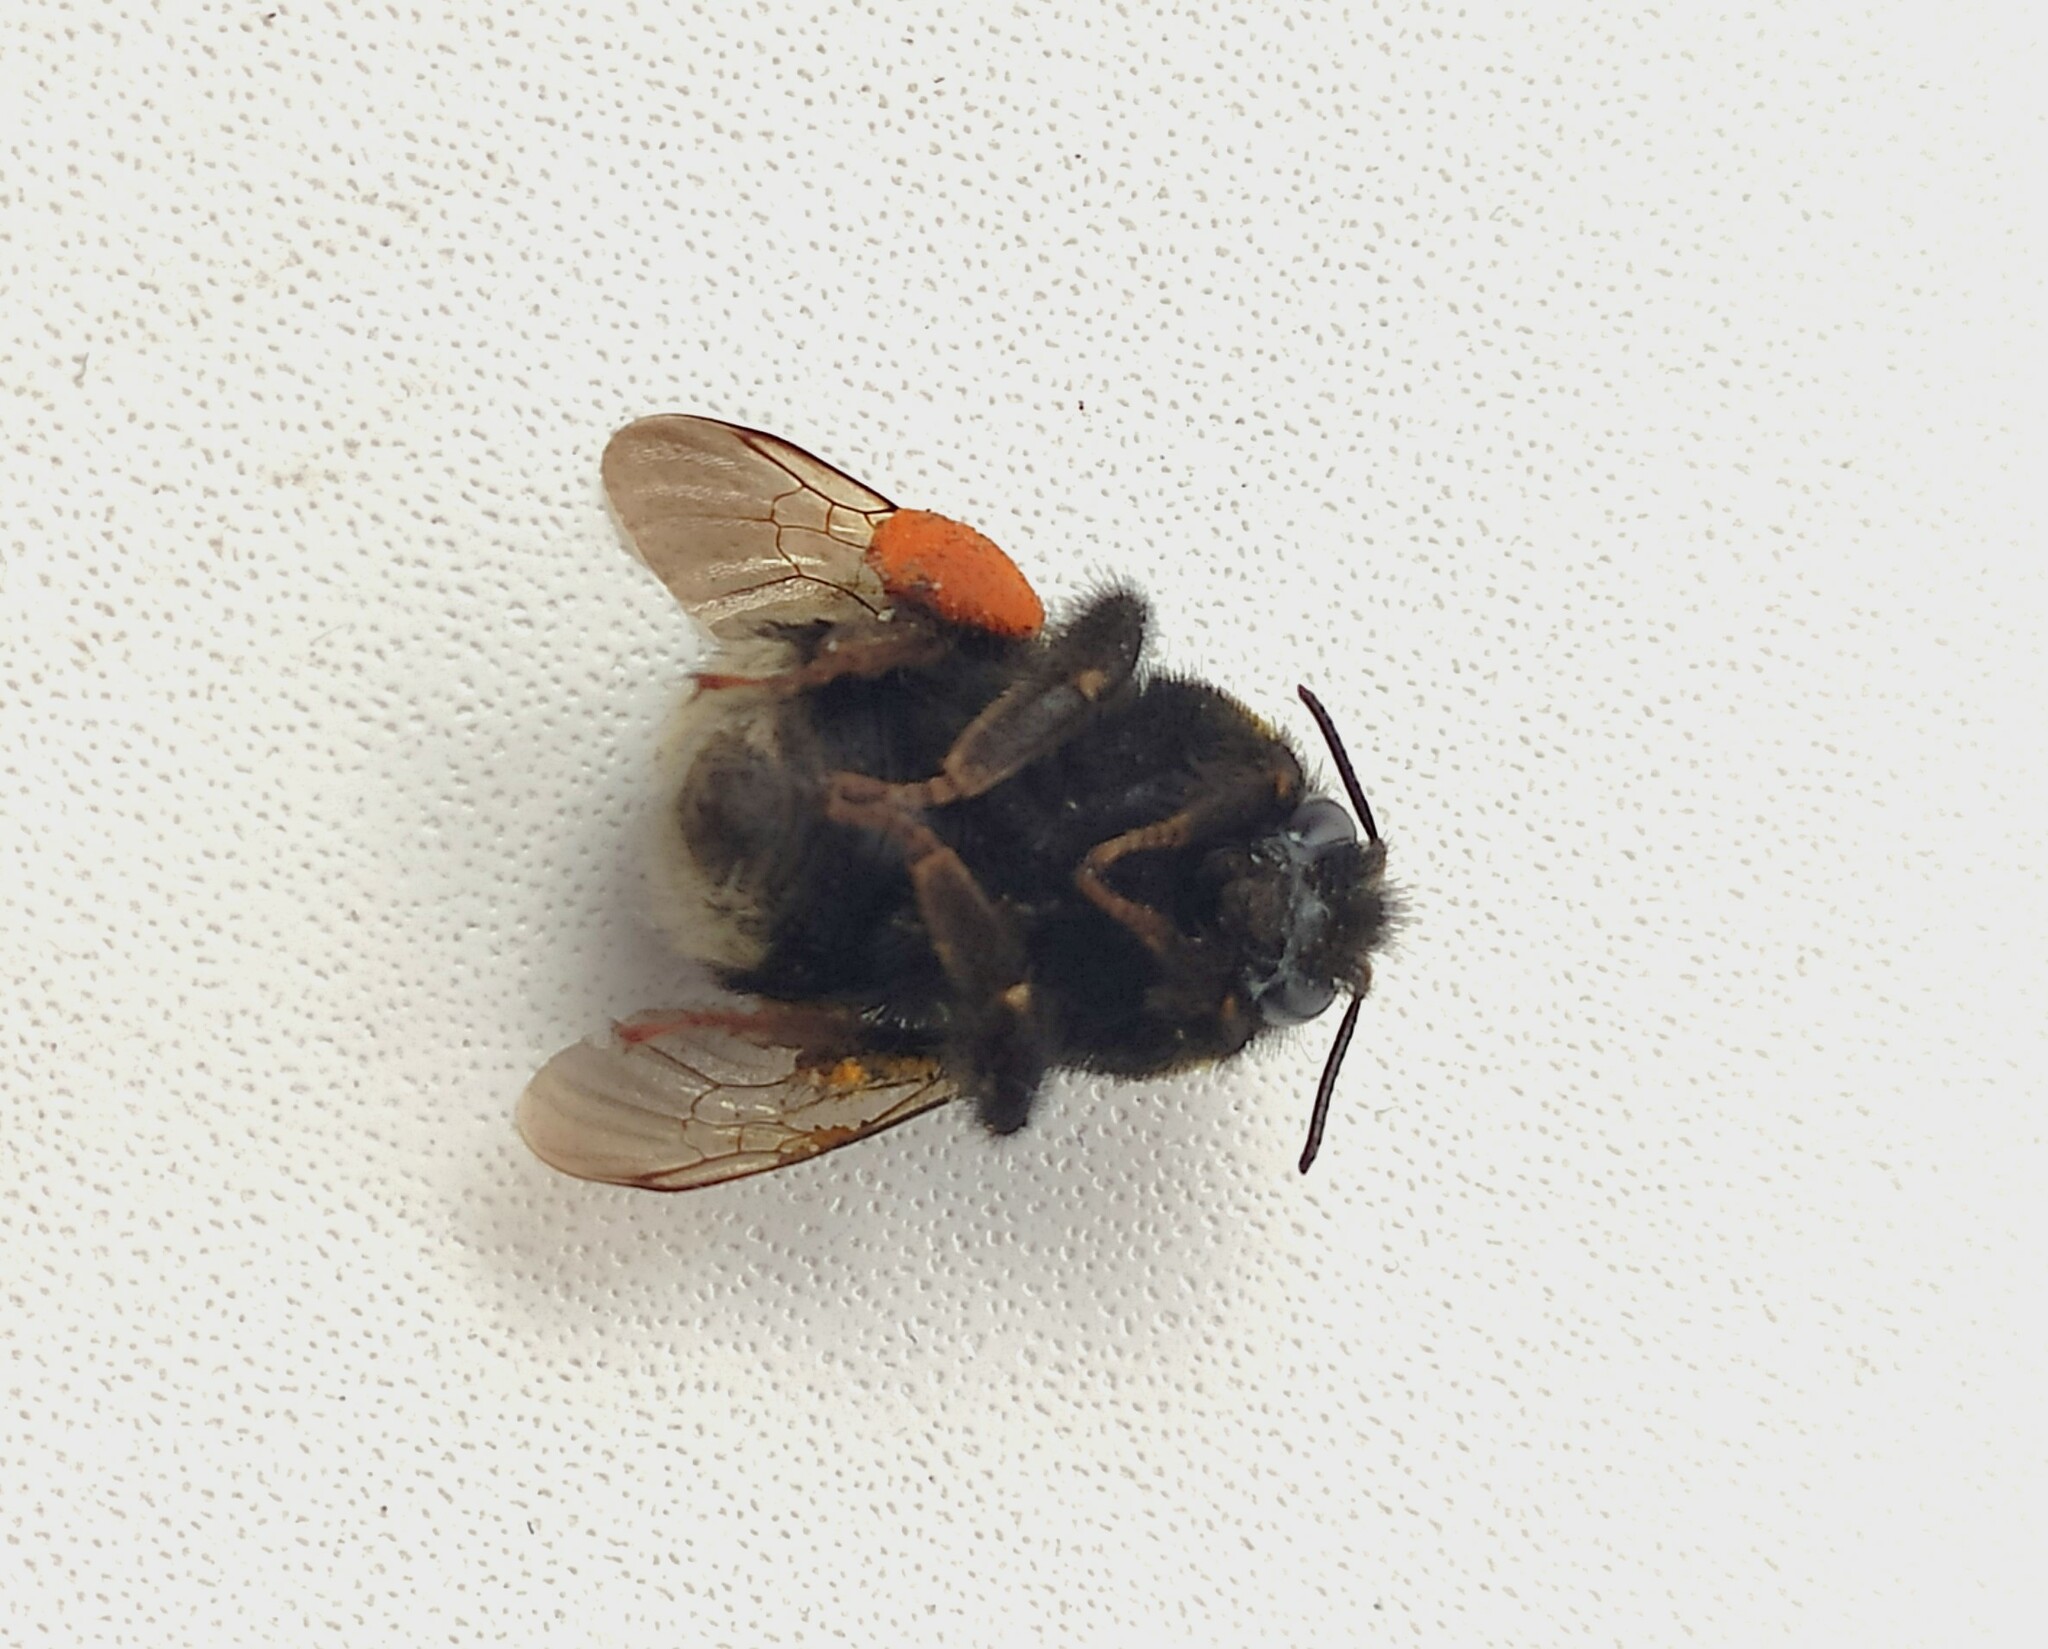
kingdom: Animalia
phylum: Arthropoda
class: Insecta
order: Hymenoptera
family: Apidae
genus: Bombus
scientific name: Bombus
